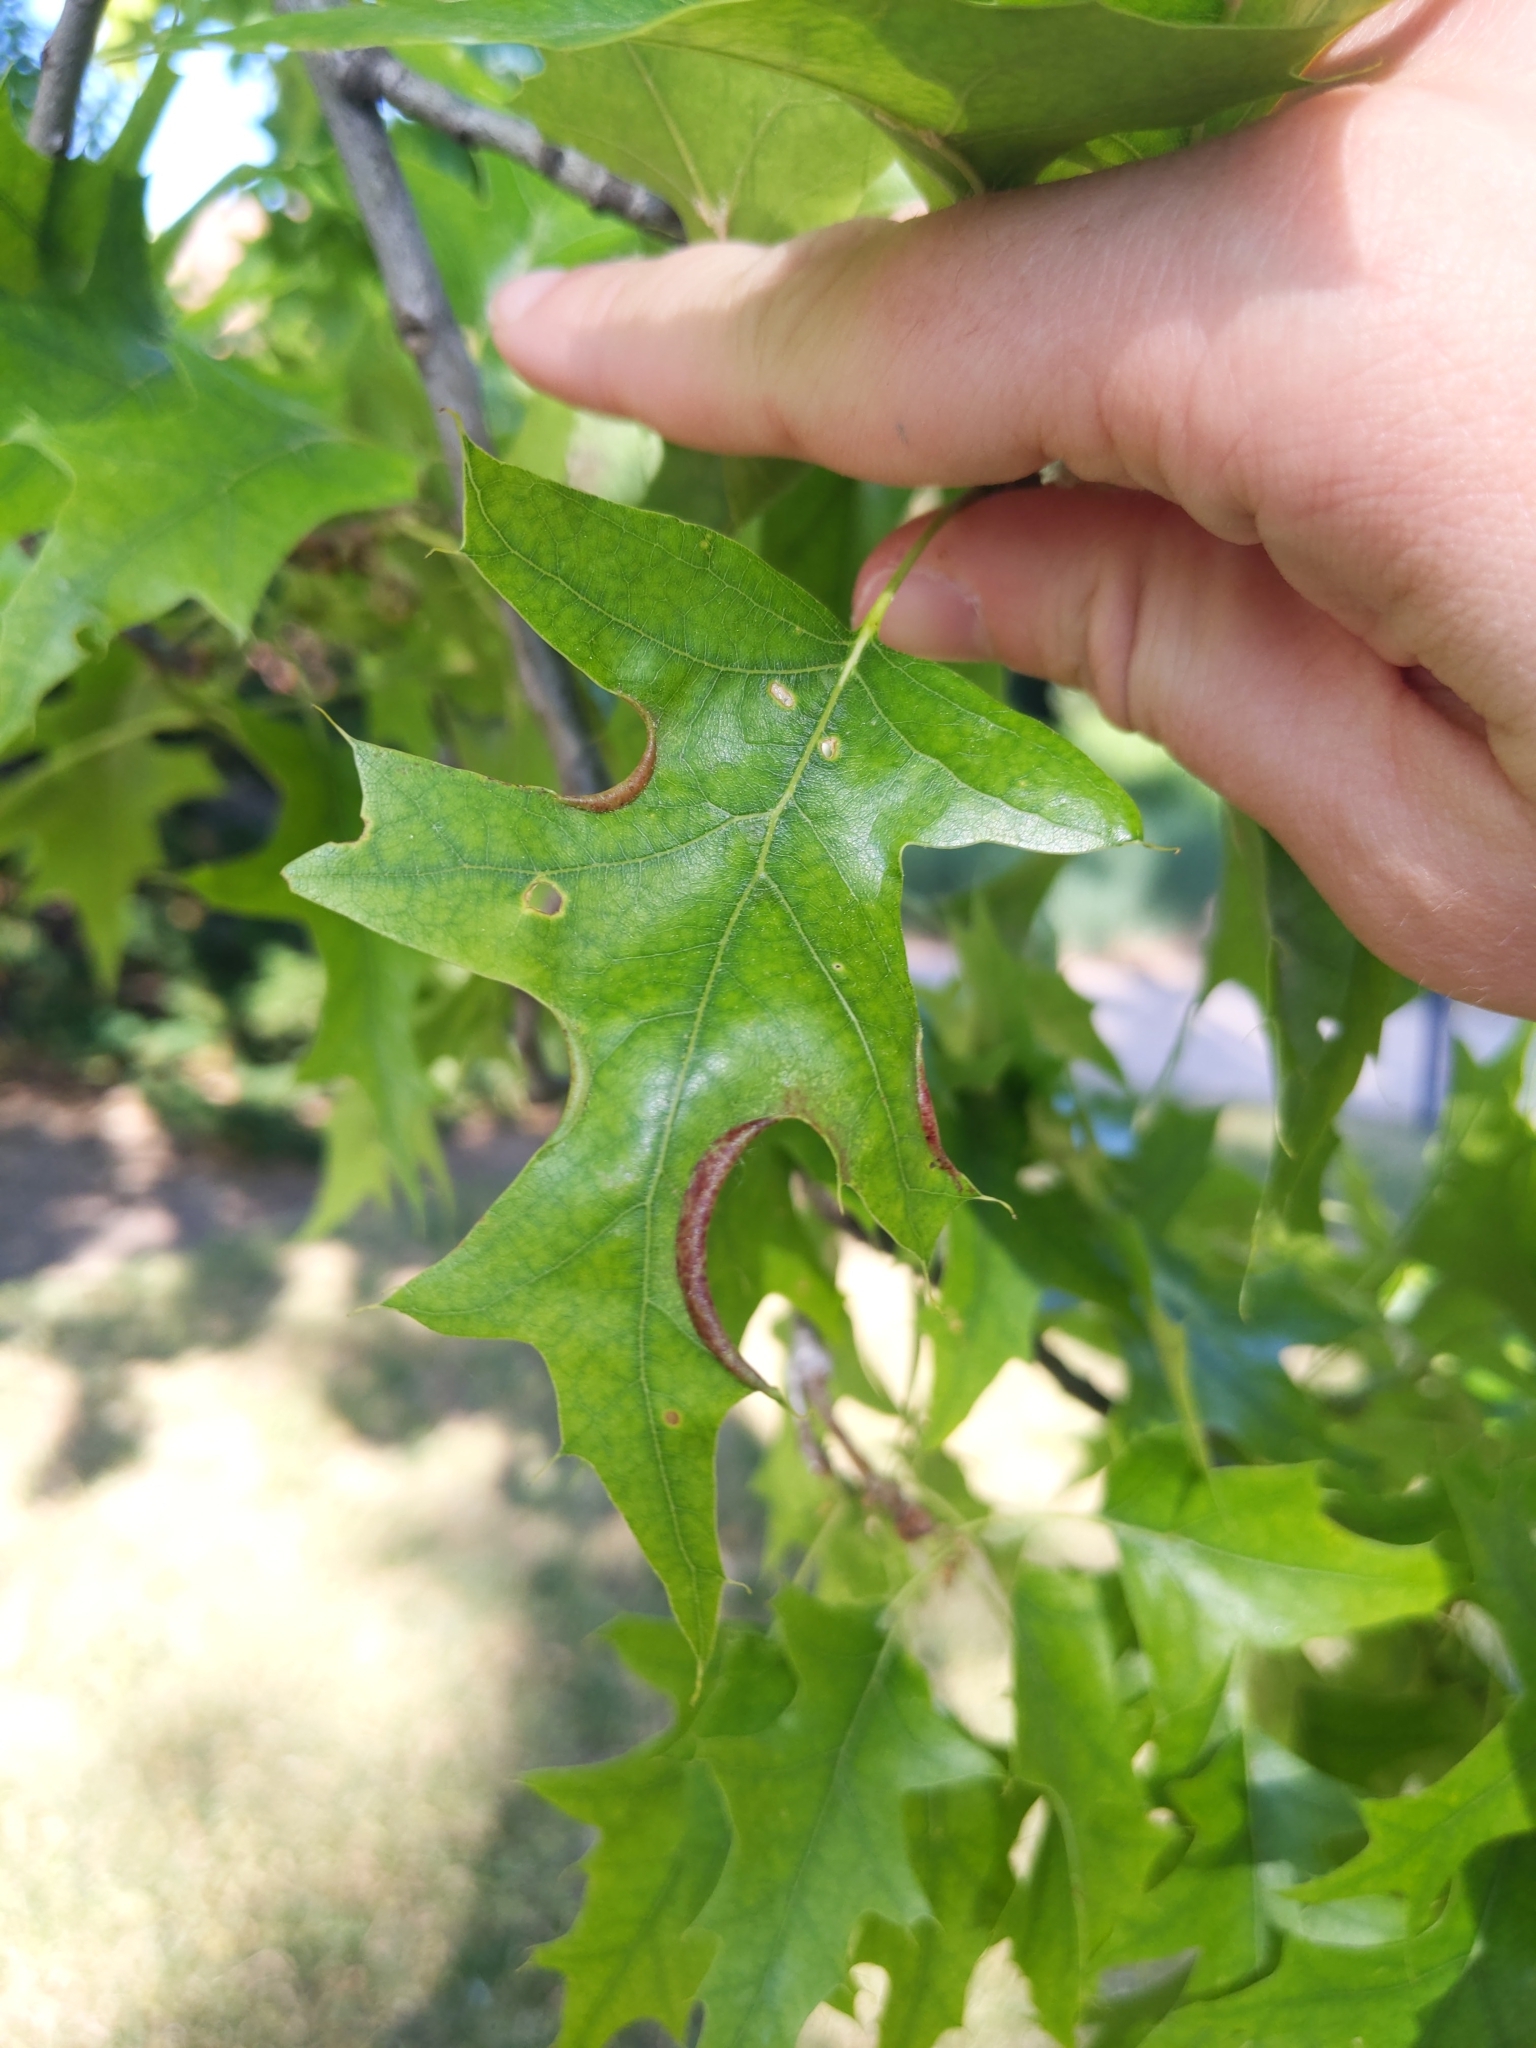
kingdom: Animalia
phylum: Arthropoda
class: Insecta
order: Diptera
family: Cecidomyiidae
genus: Macrodiplosis
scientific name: Macrodiplosis erubescens
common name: Marginal leaf fold gall midge
